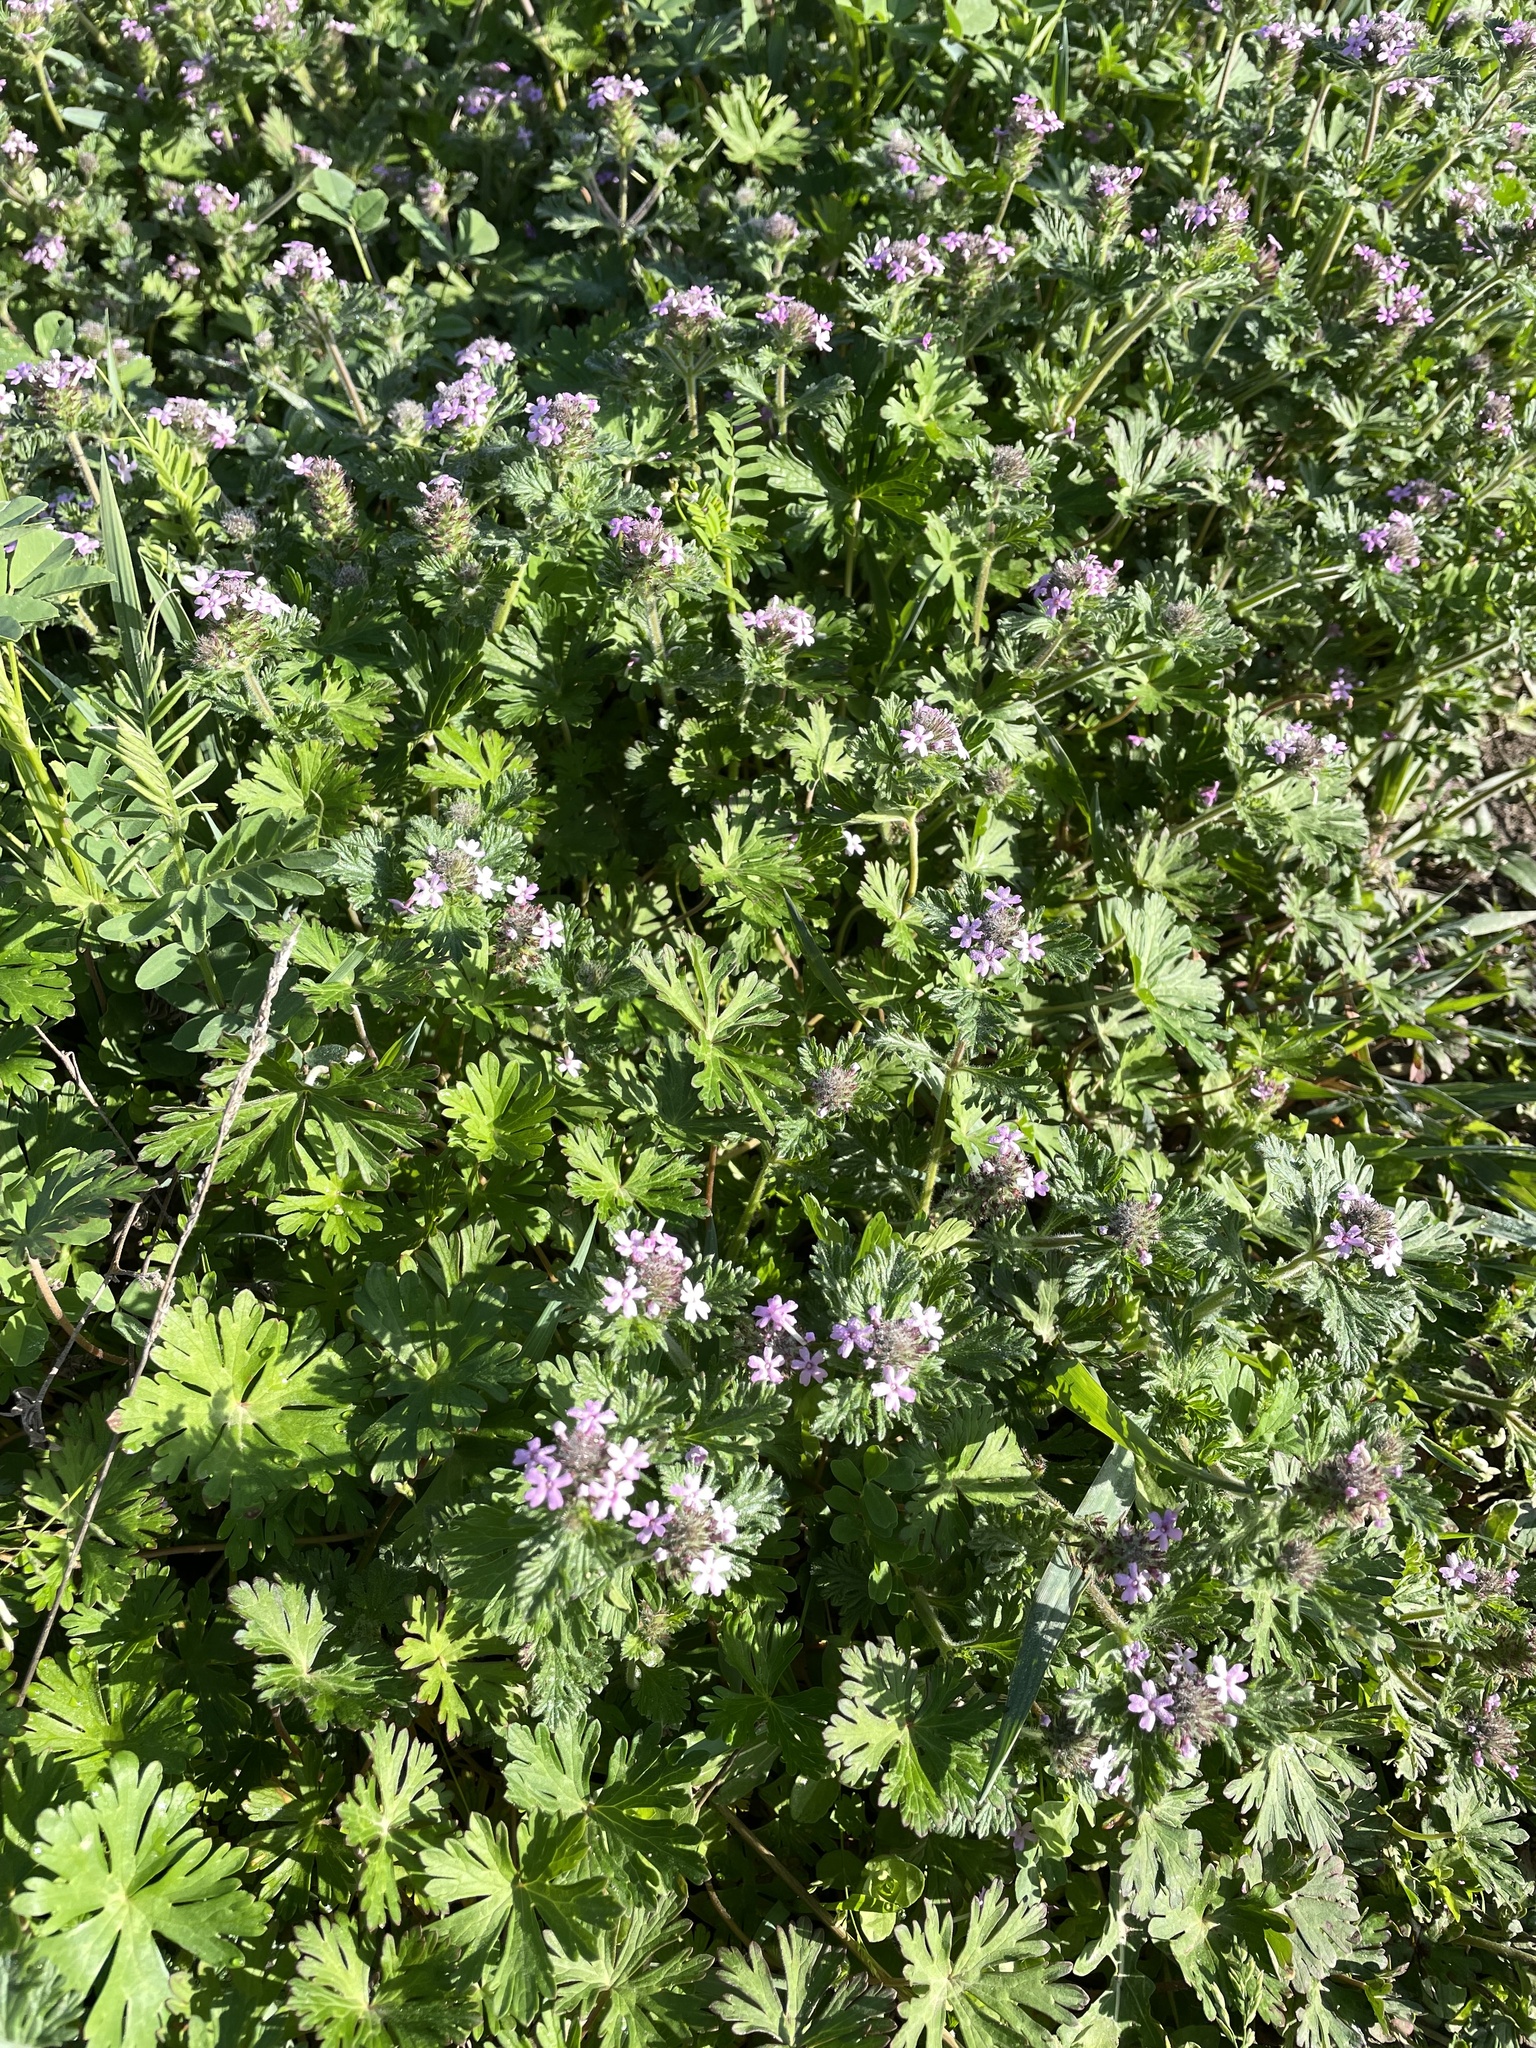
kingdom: Plantae
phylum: Tracheophyta
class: Magnoliopsida
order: Lamiales
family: Verbenaceae
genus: Verbena
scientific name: Verbena pumila
